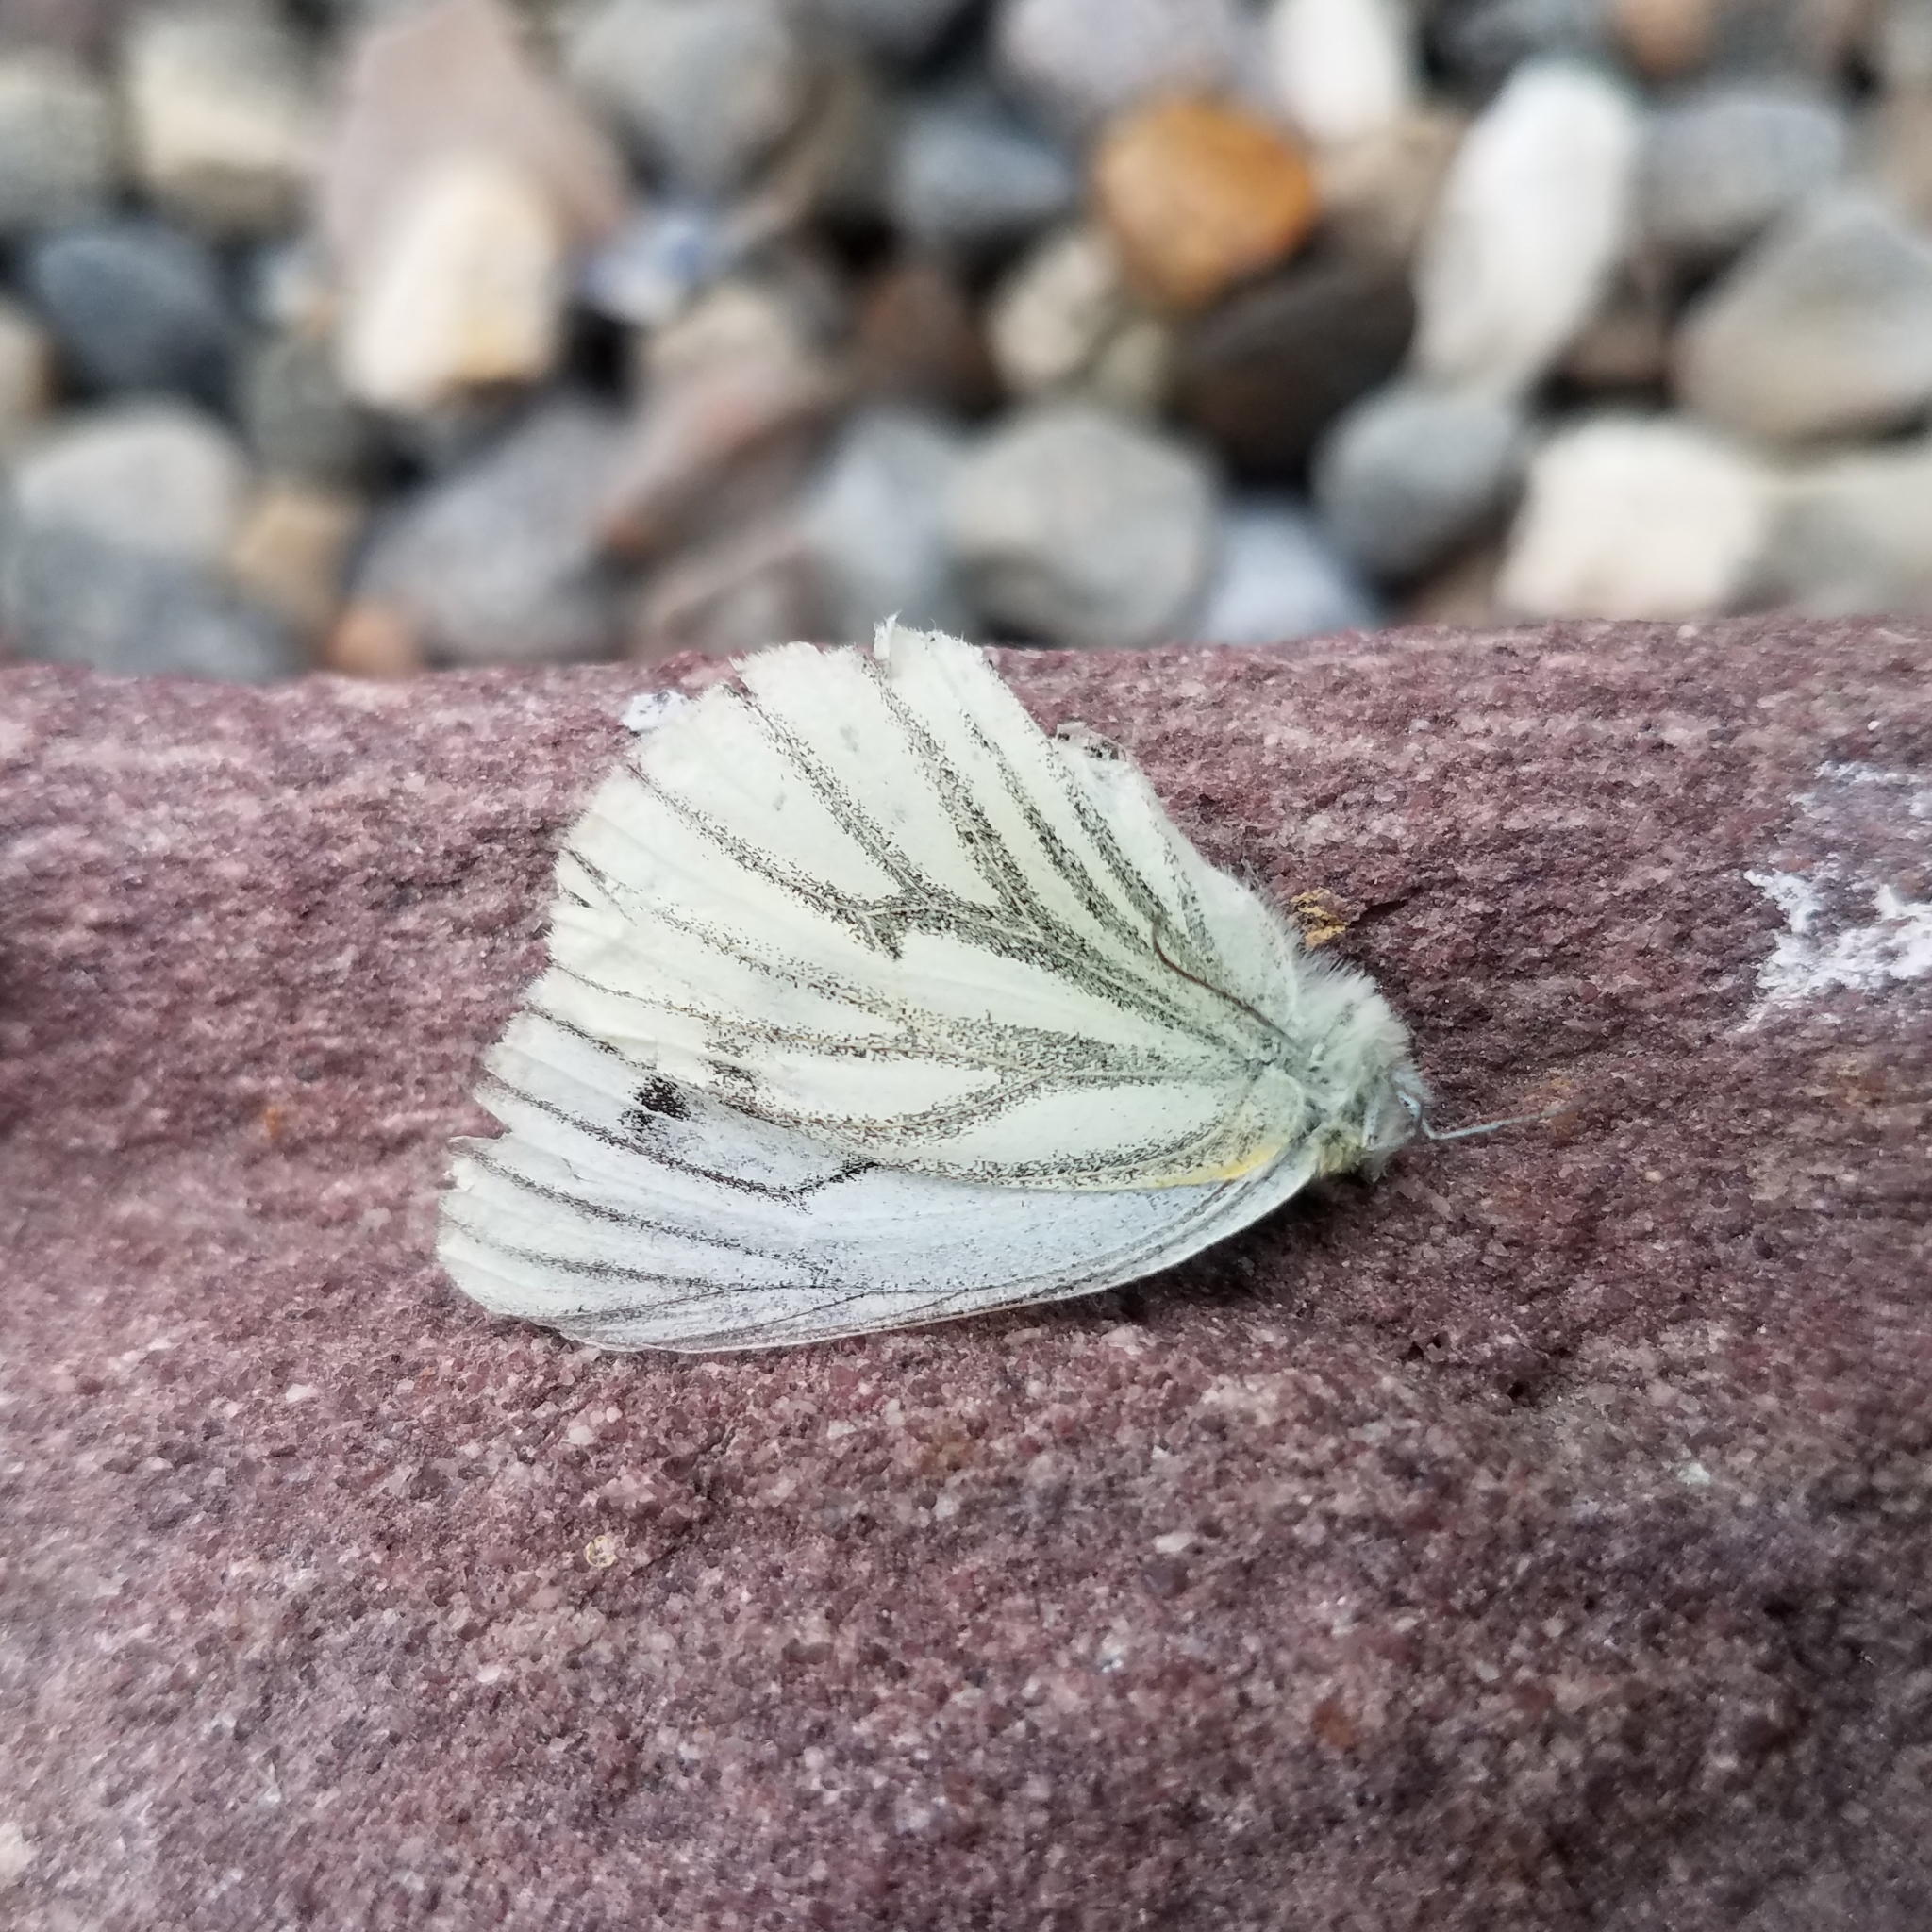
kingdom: Animalia
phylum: Arthropoda
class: Insecta
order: Lepidoptera
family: Pieridae
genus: Pieris
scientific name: Pieris napi
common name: Green-veined white
